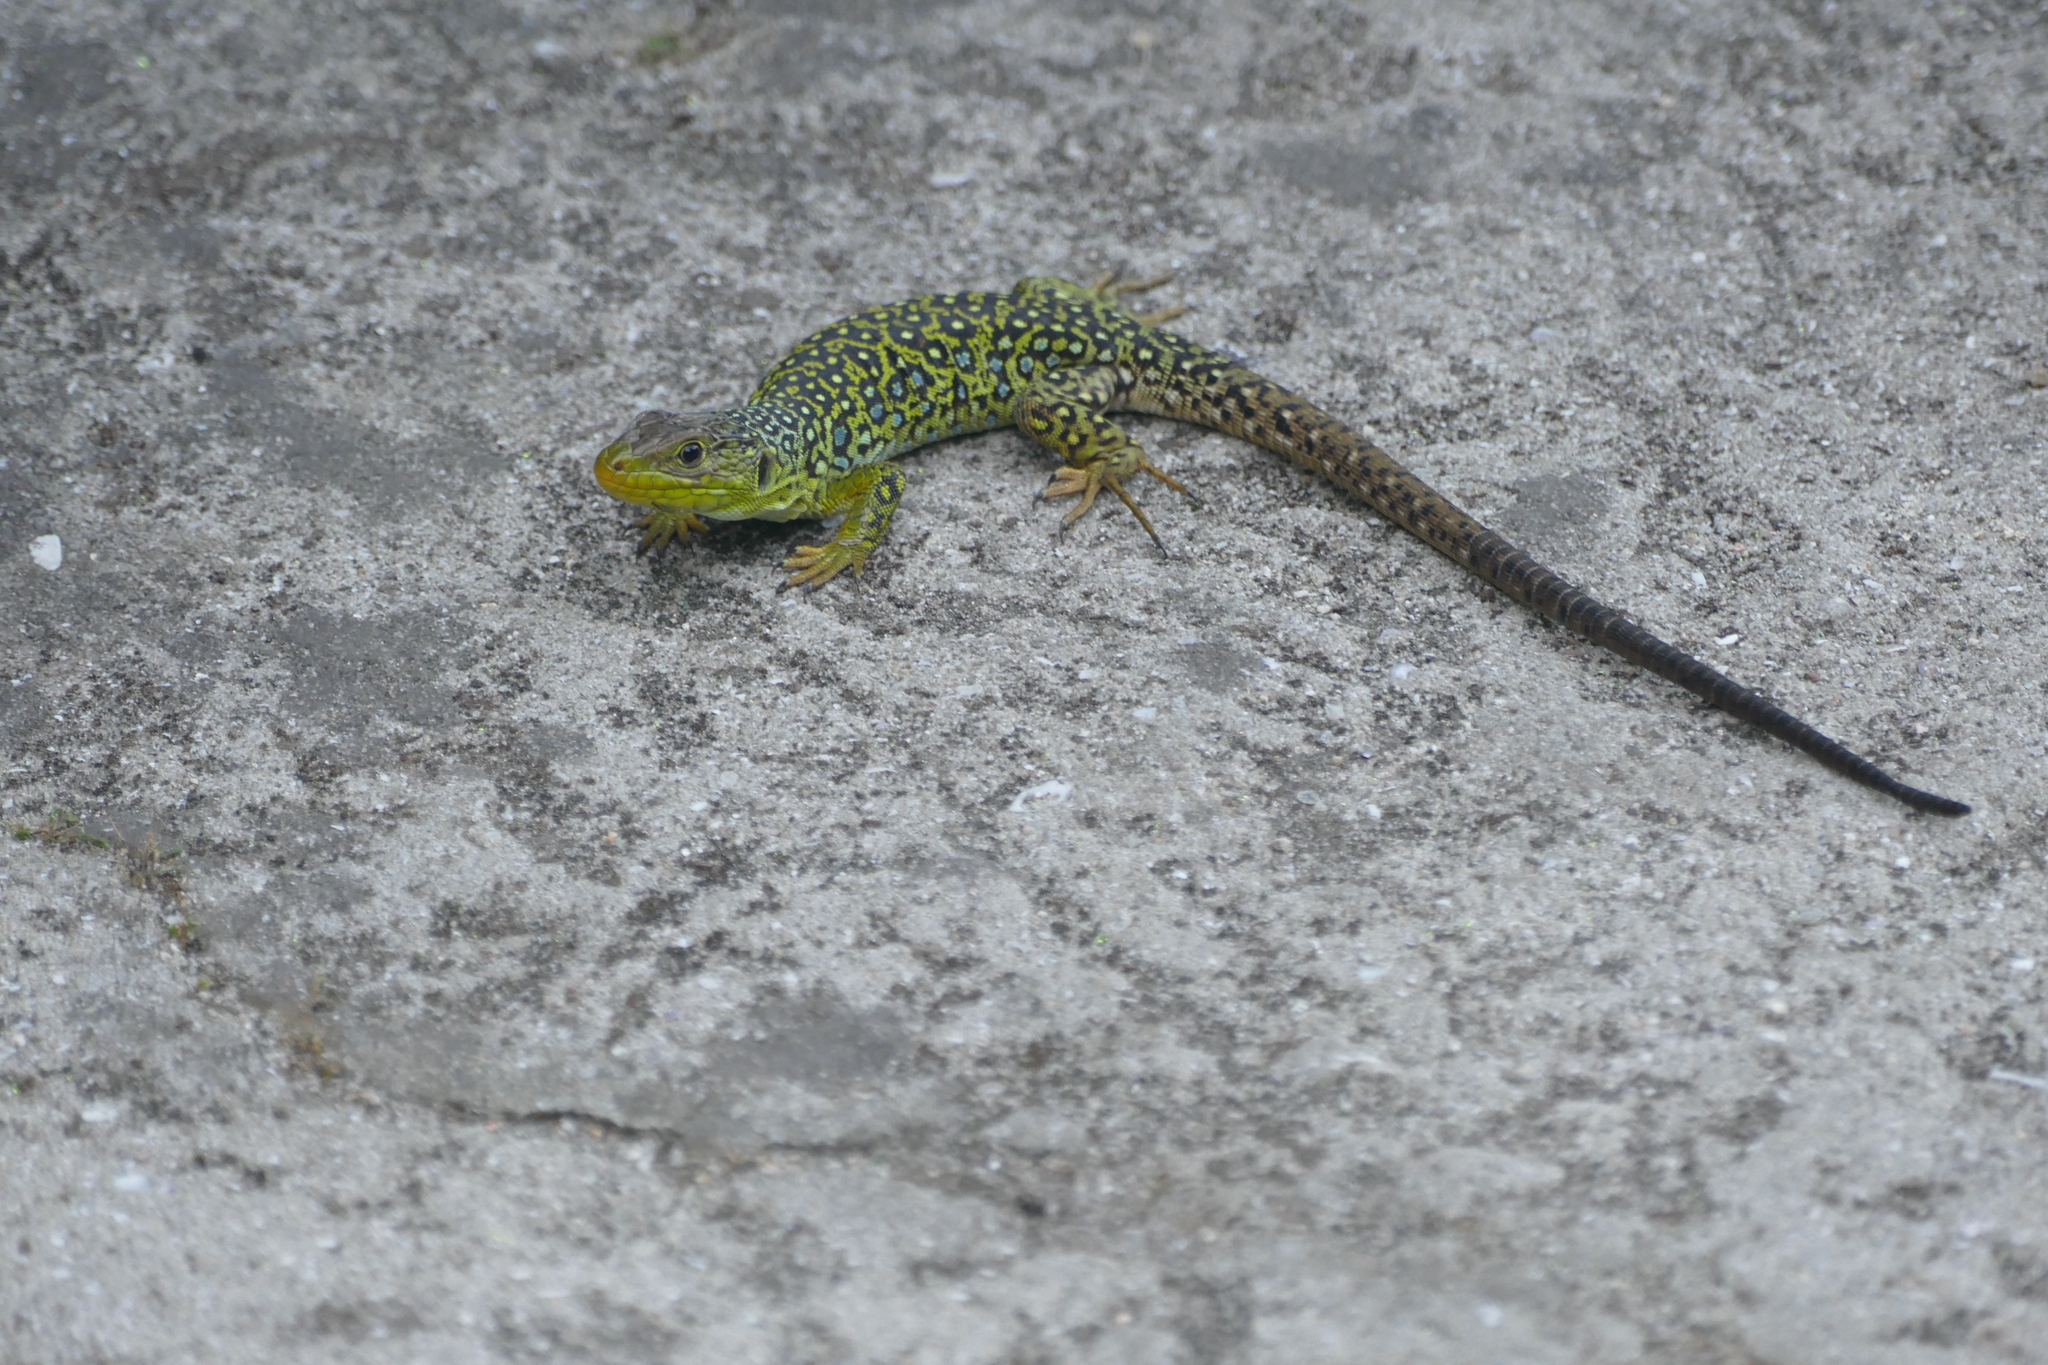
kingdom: Animalia
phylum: Chordata
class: Squamata
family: Lacertidae
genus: Timon
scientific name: Timon lepidus
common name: Ocellated lizard
